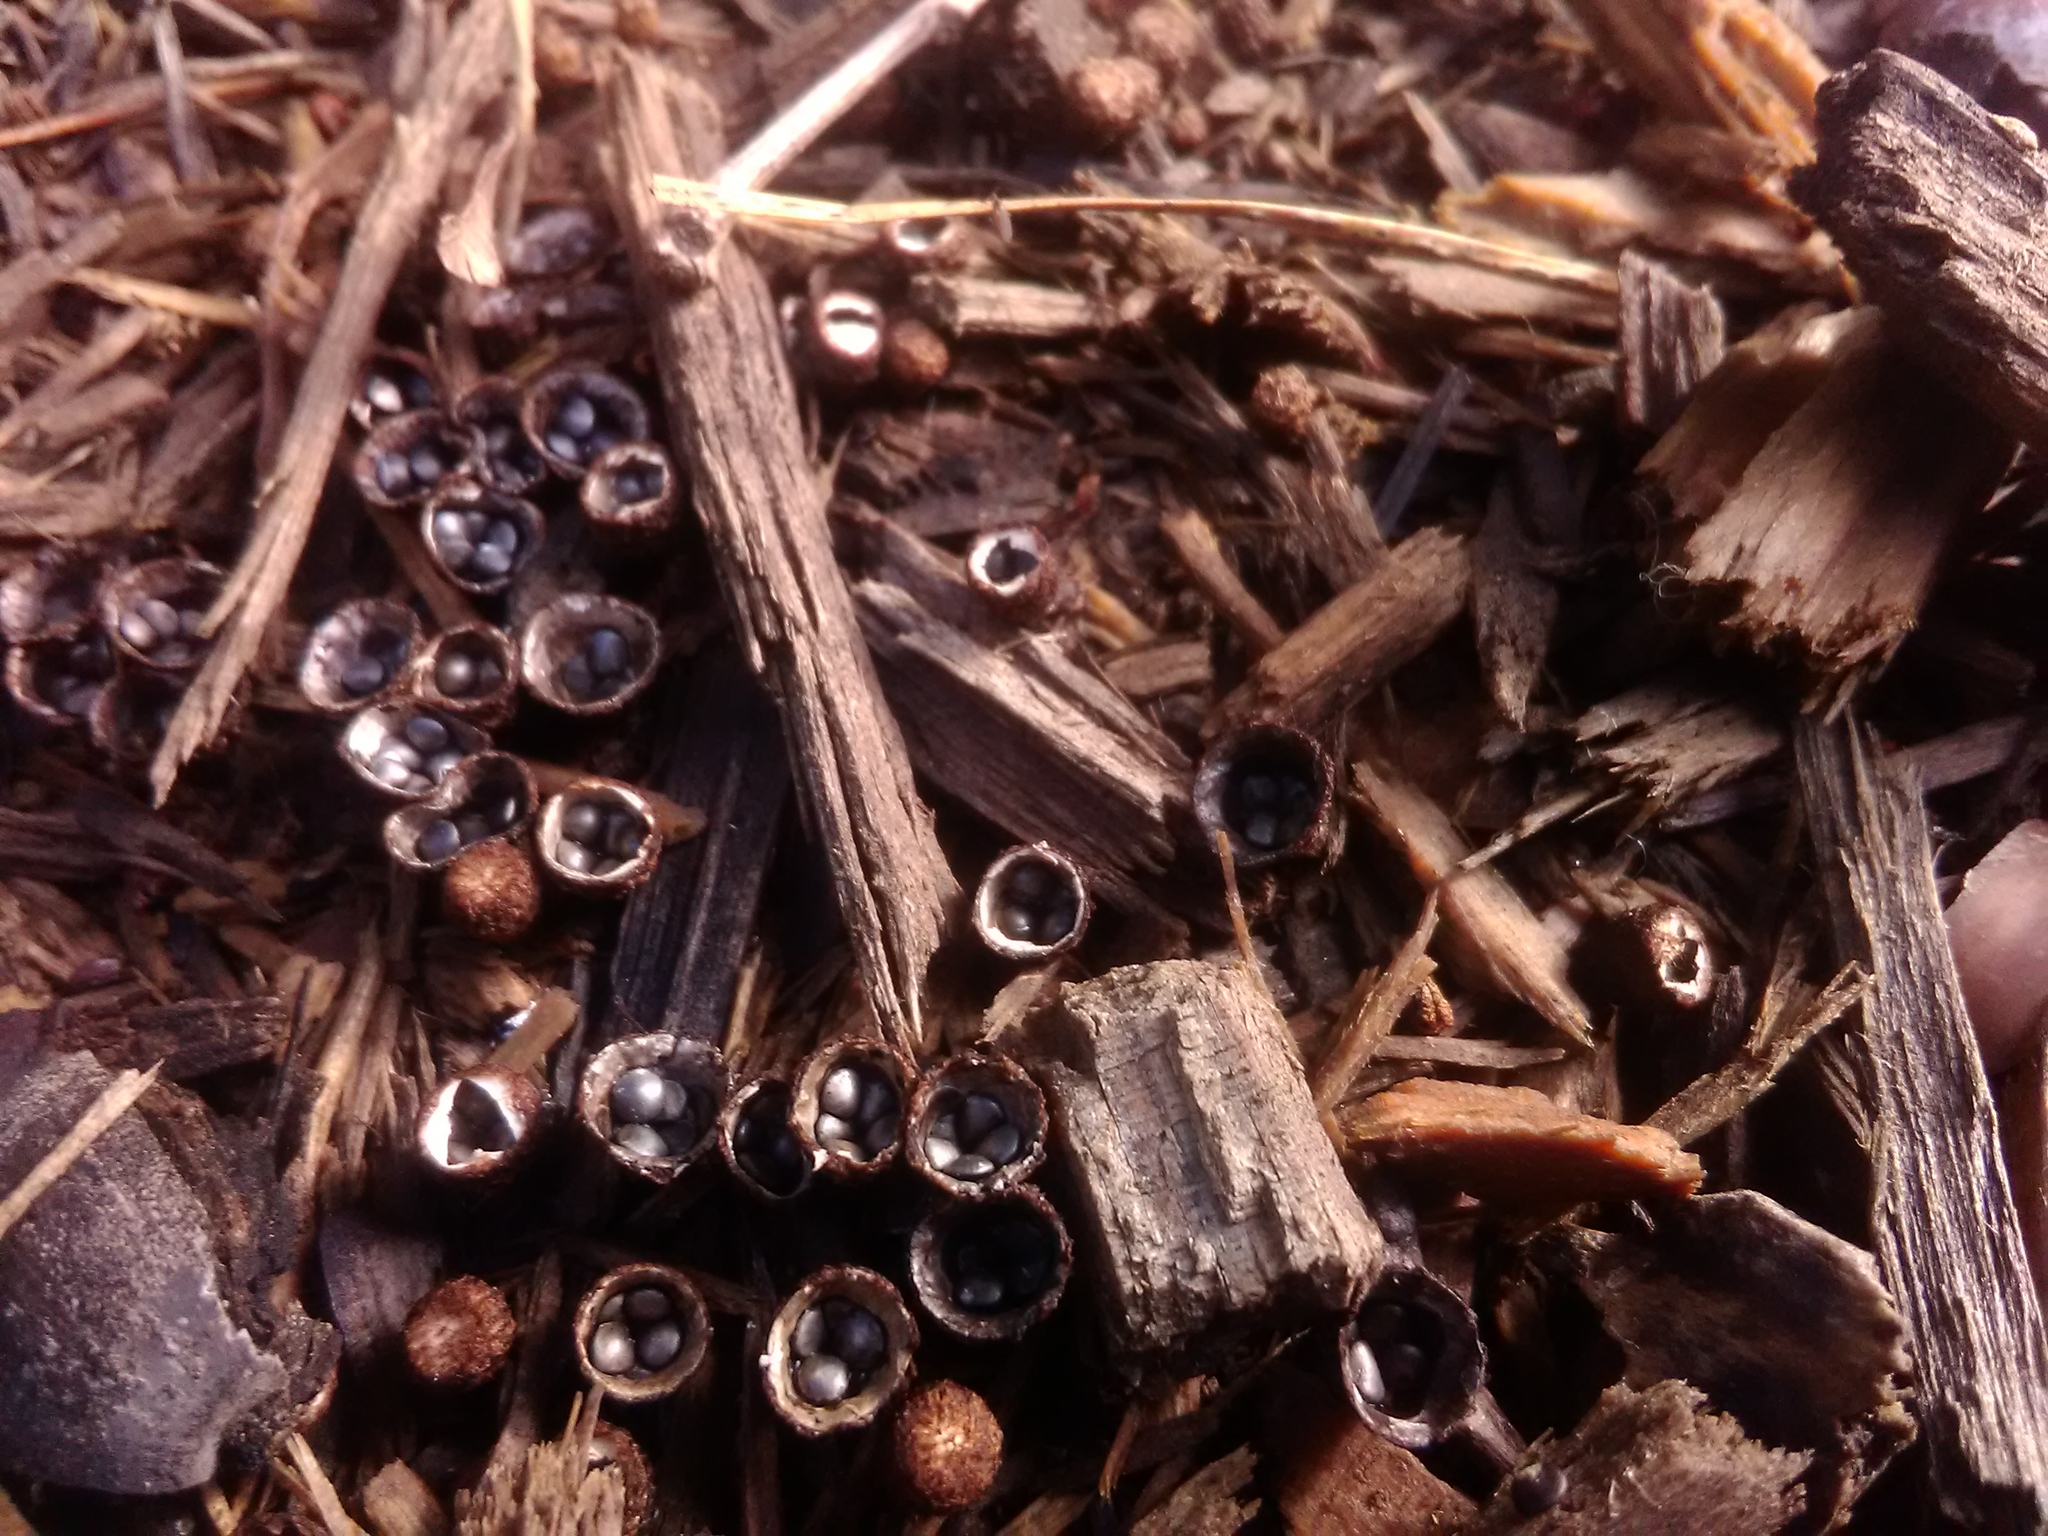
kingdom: Fungi
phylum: Basidiomycota
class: Agaricomycetes
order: Agaricales
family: Agaricaceae
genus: Cyathus
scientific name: Cyathus stercoreus
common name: Dung bird's nest
